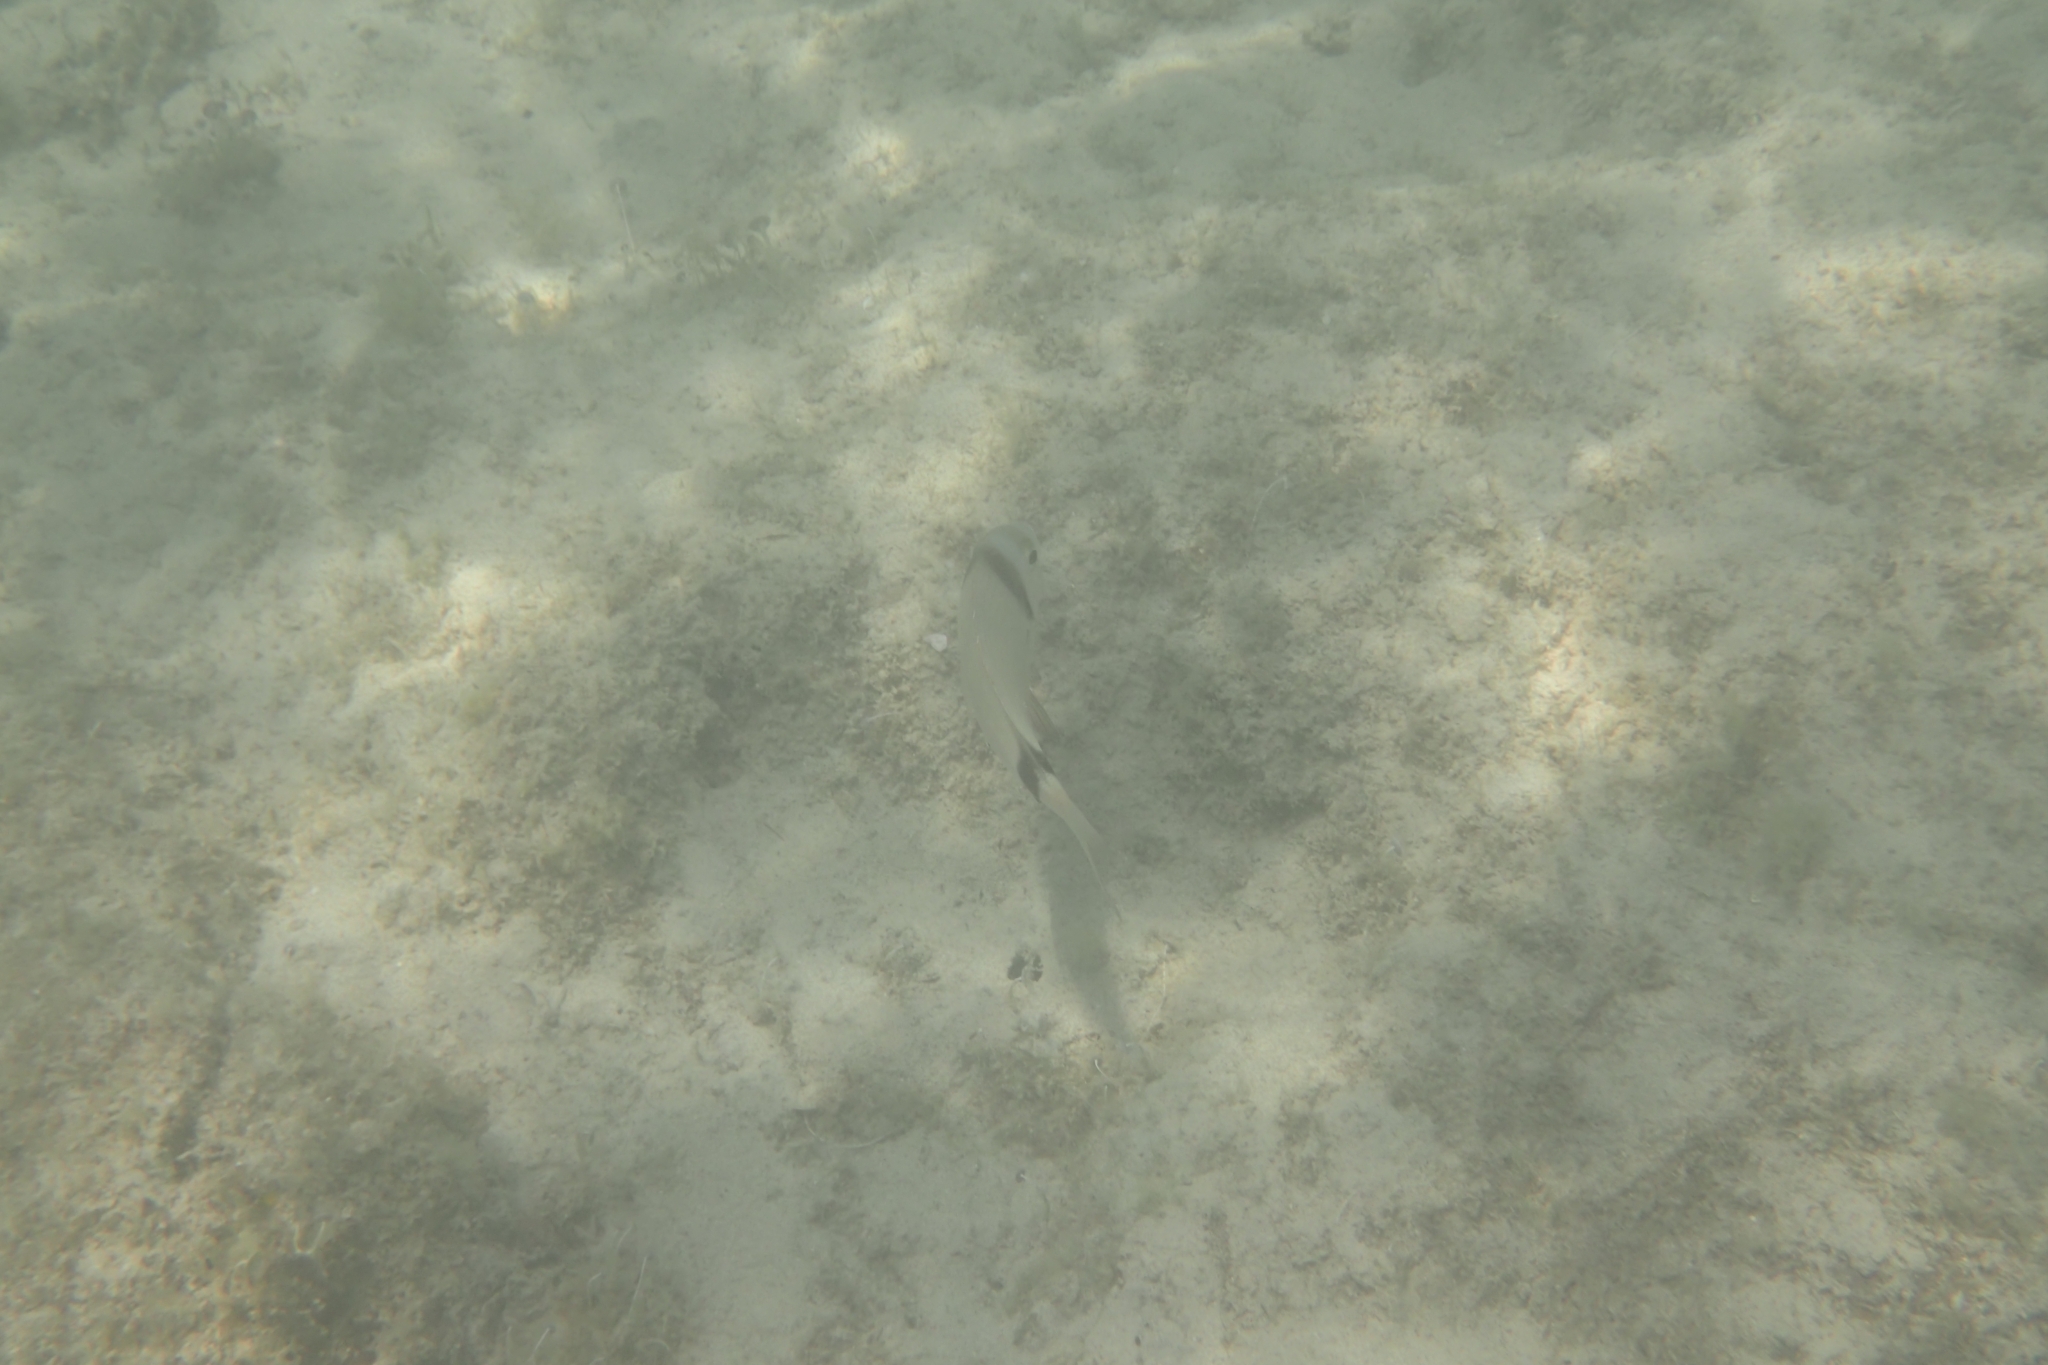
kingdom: Animalia
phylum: Chordata
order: Perciformes
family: Sparidae
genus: Diplodus
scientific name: Diplodus vulgaris
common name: Common two-banded seabream
